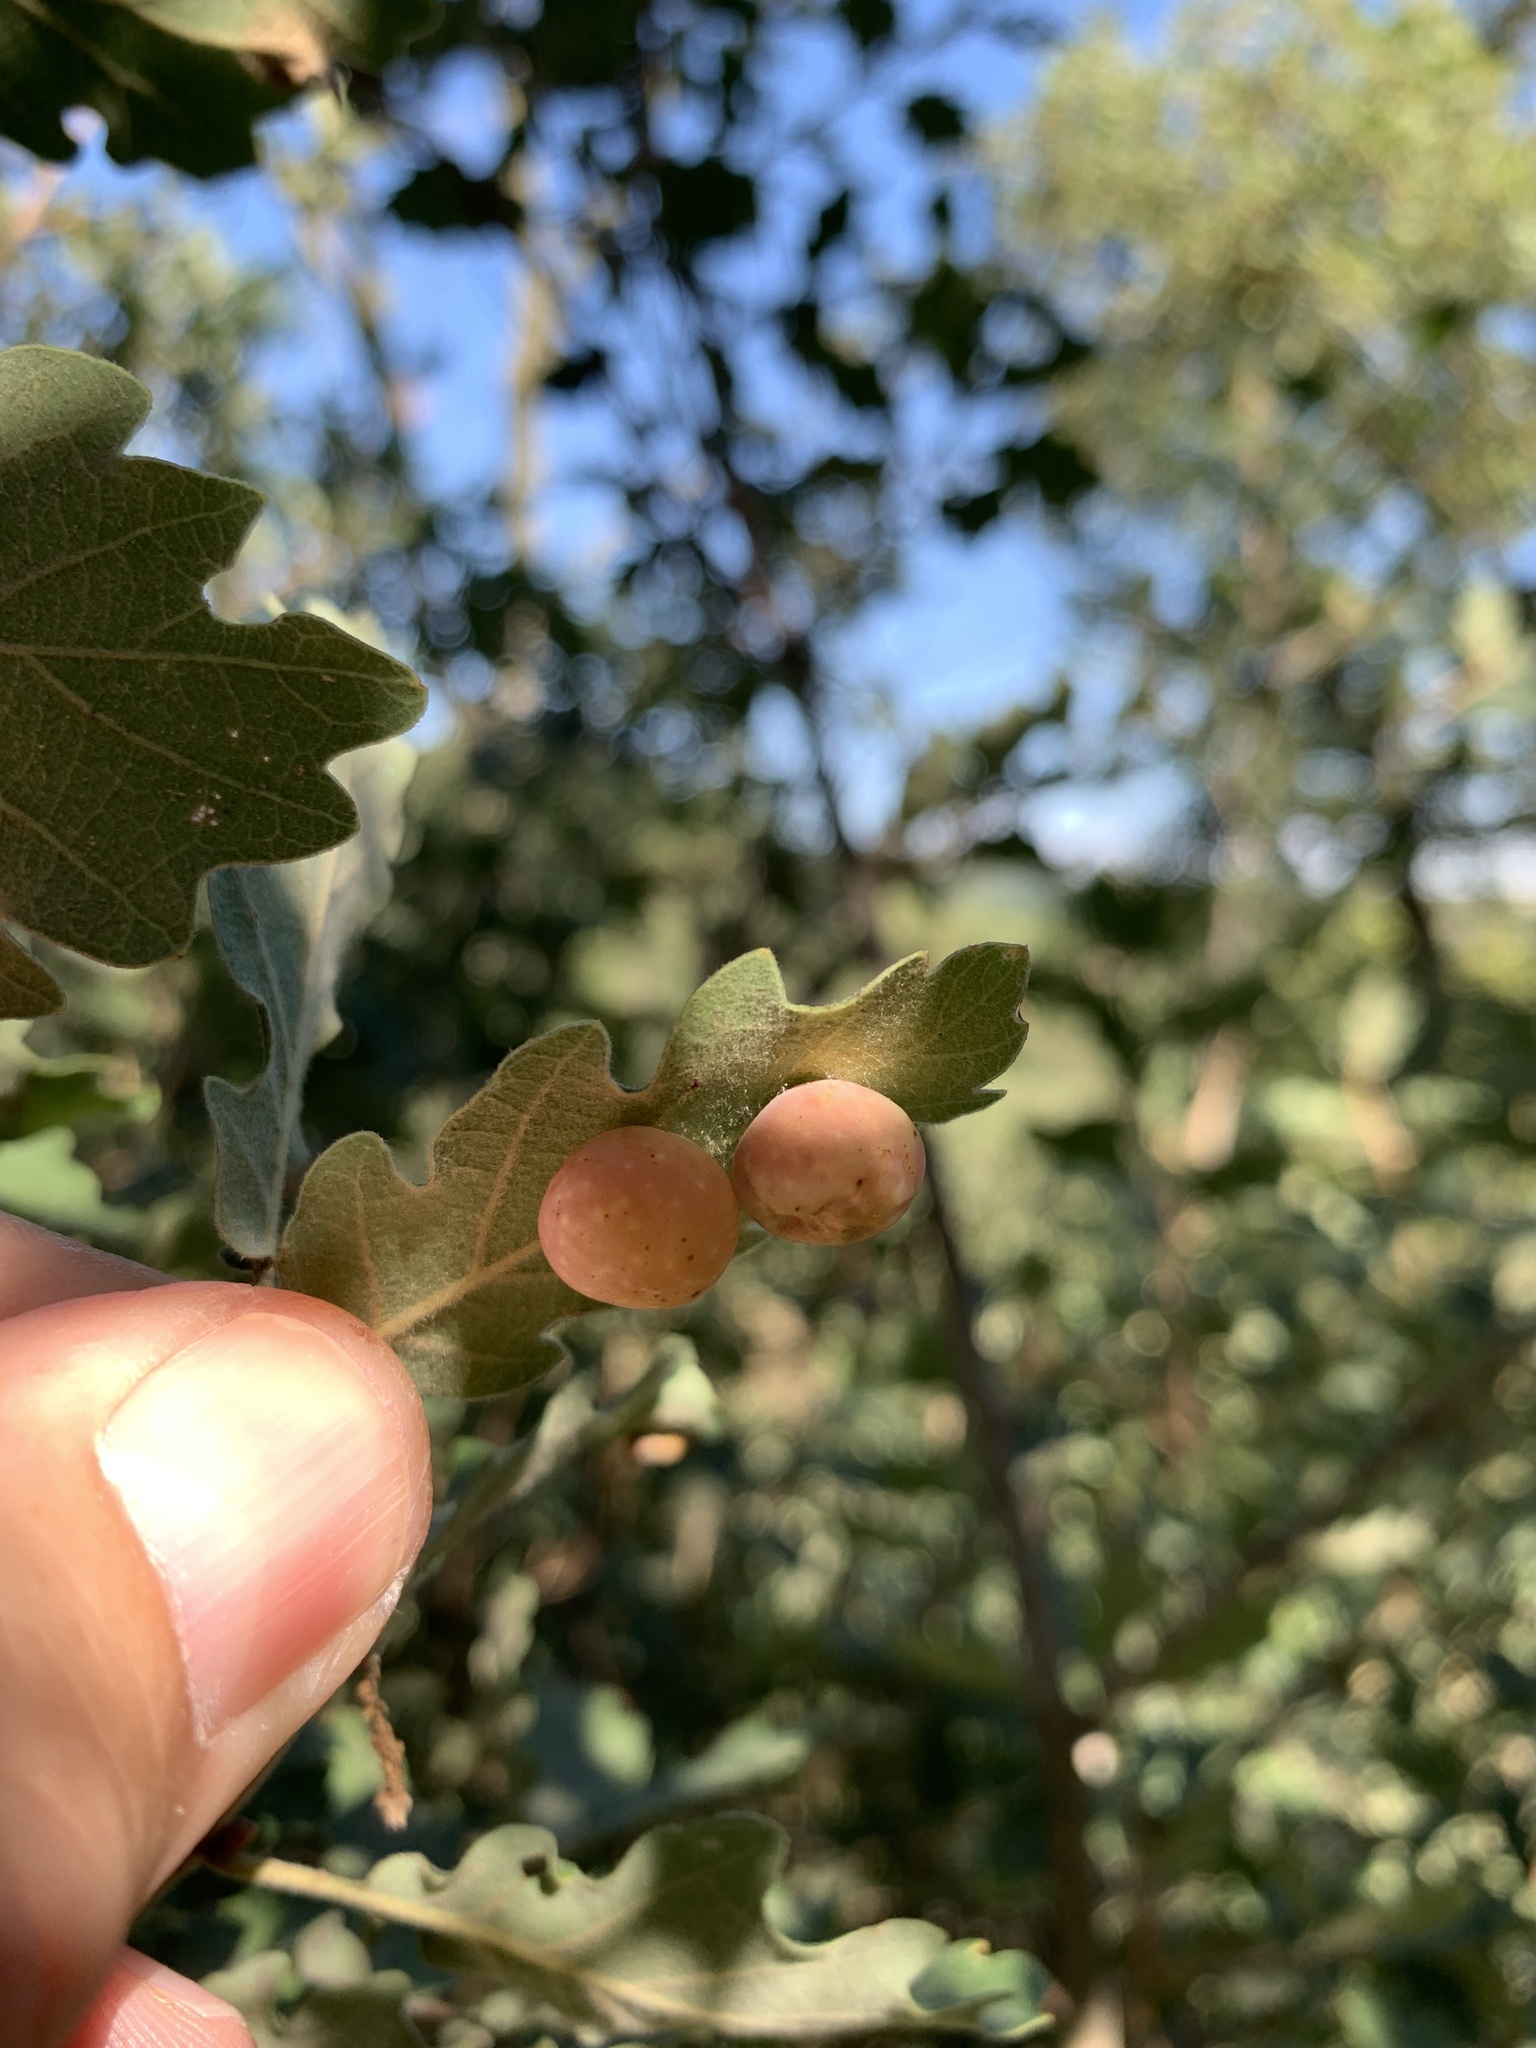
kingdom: Animalia
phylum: Arthropoda
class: Insecta
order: Hymenoptera
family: Cynipidae
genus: Cynips
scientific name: Cynips quercus
